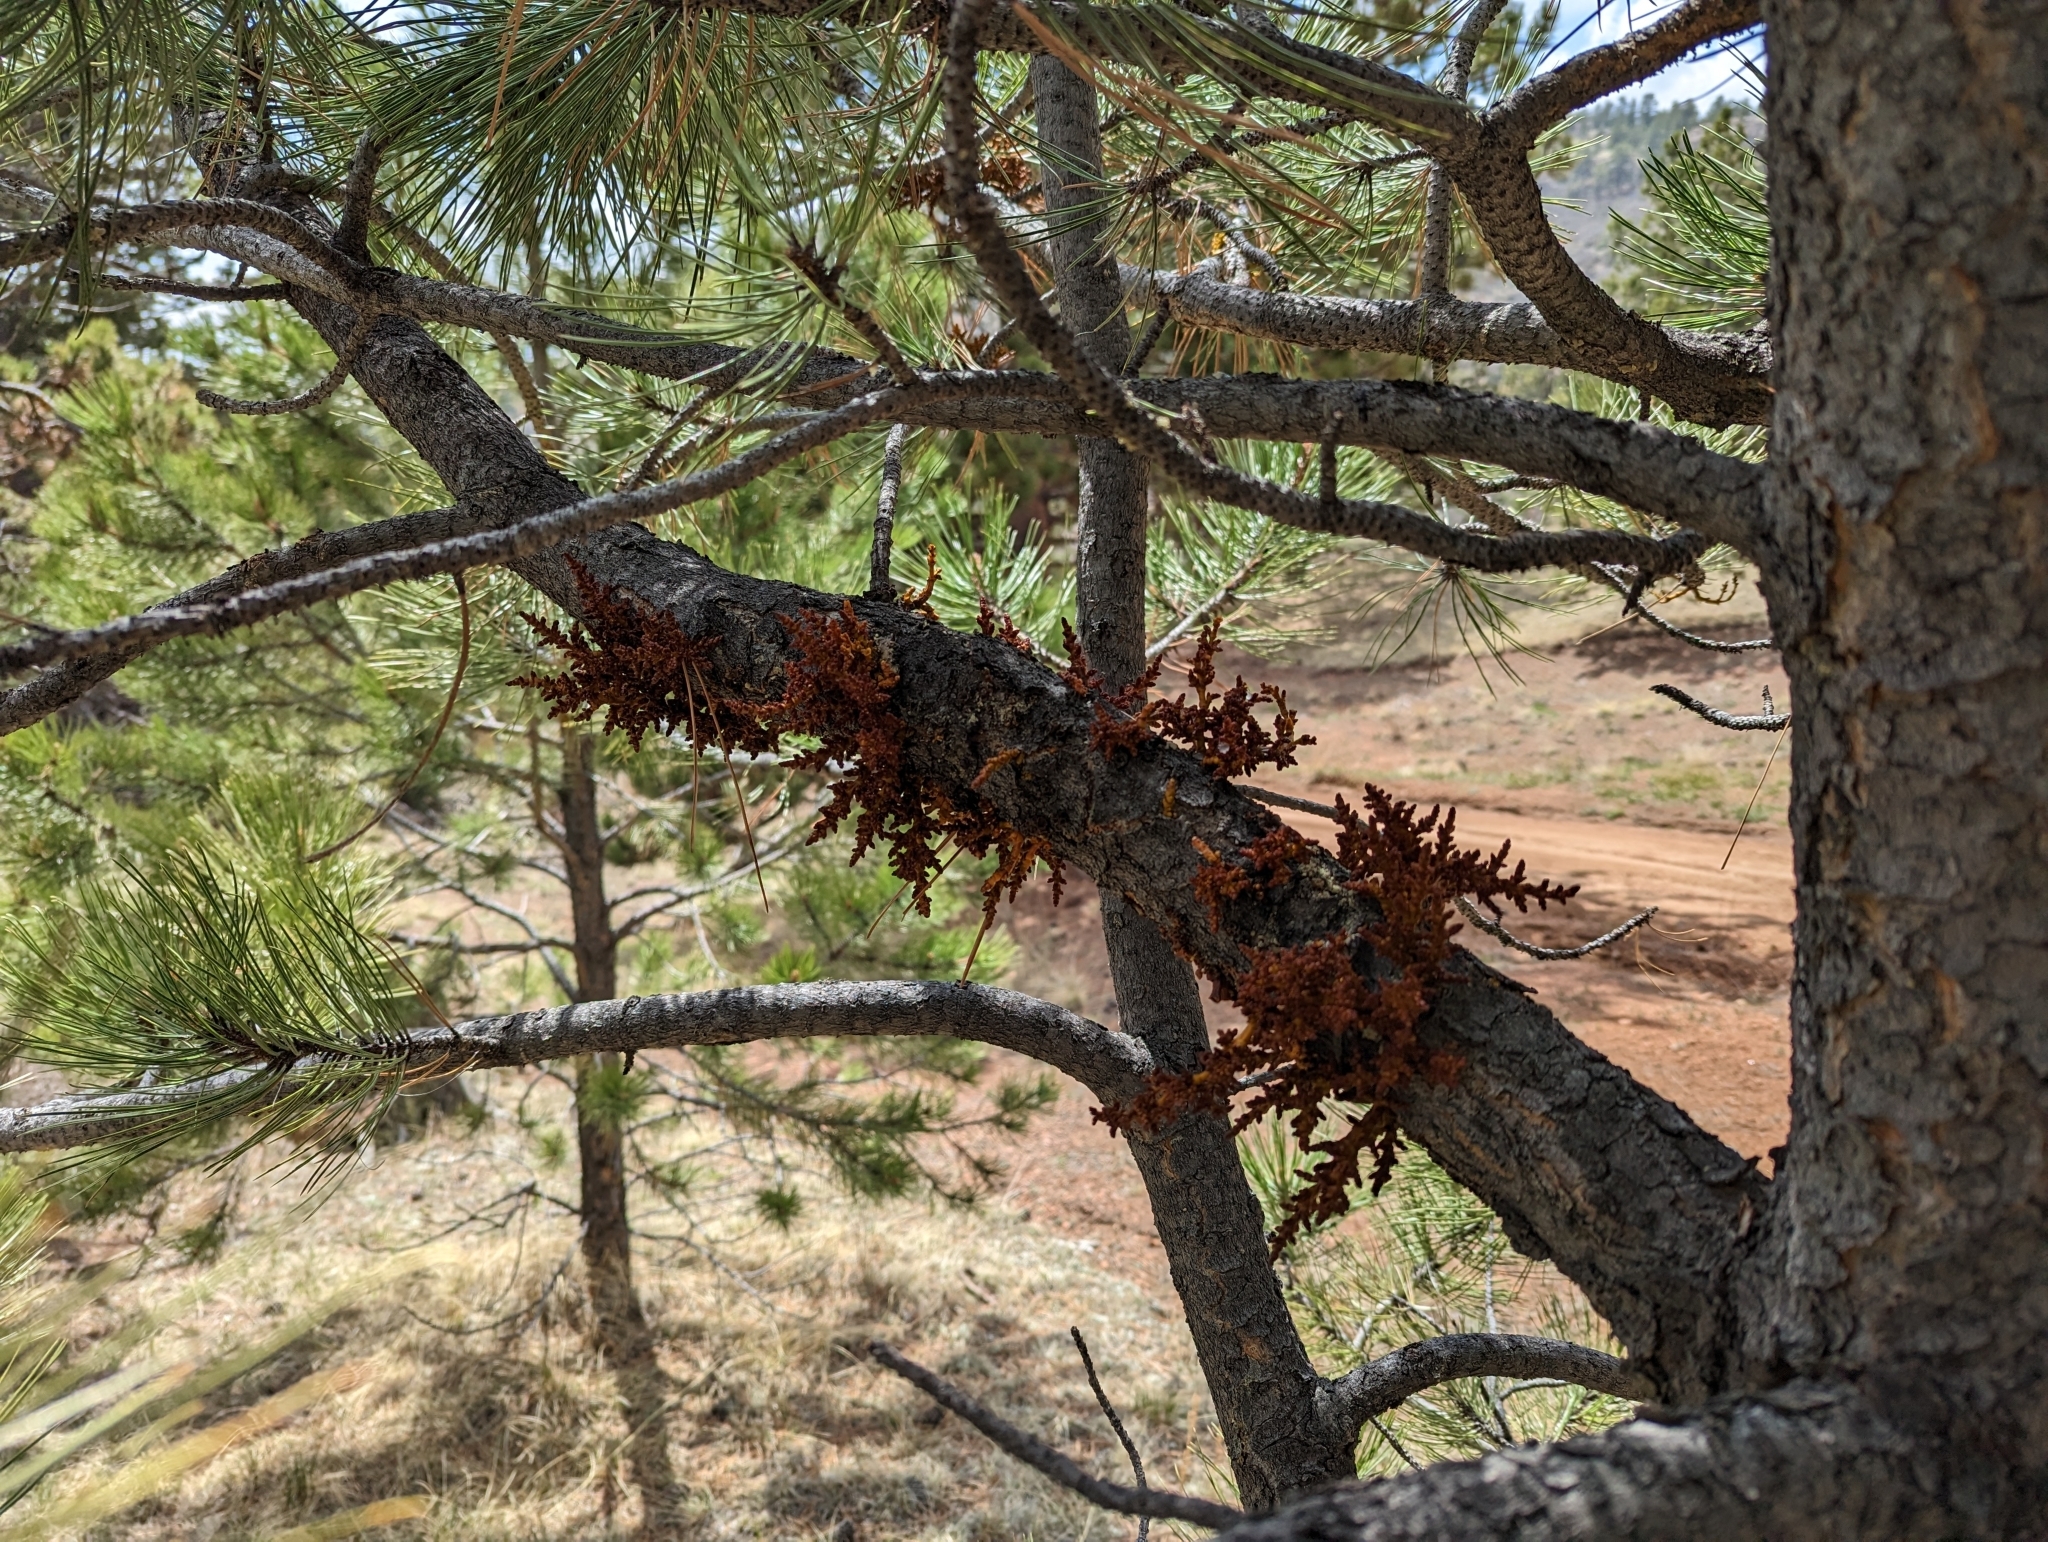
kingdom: Plantae
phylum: Tracheophyta
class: Magnoliopsida
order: Santalales
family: Viscaceae
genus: Arceuthobium
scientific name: Arceuthobium vaginatum
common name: Southwestern dwarf-mistletoe
